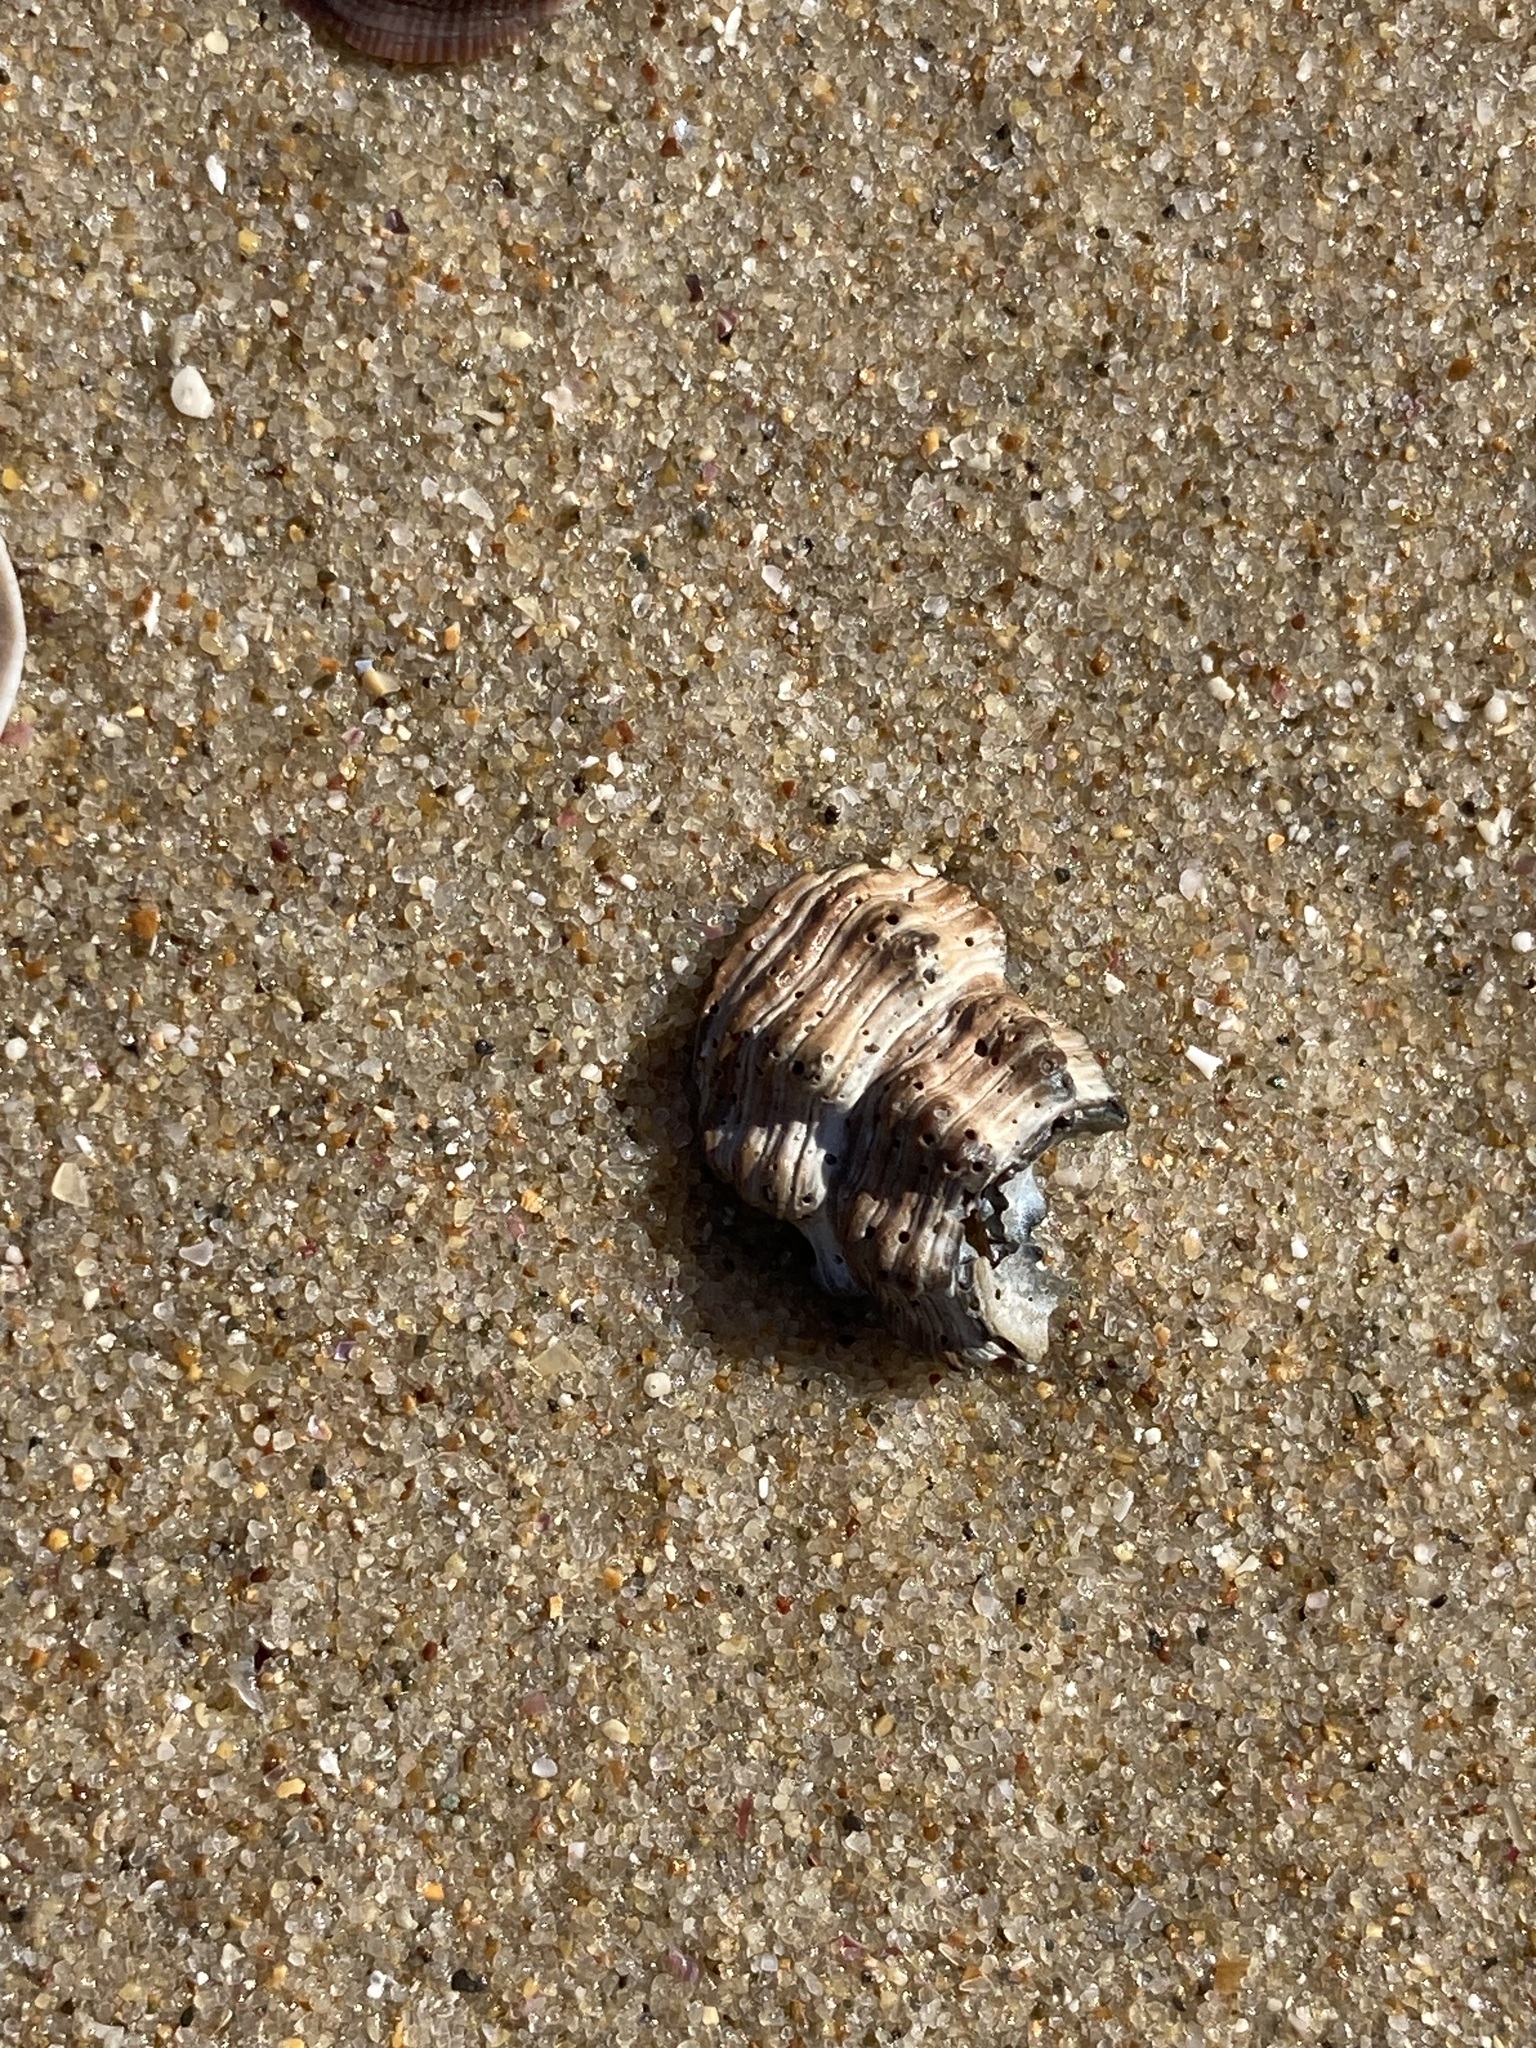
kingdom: Animalia
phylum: Mollusca
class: Gastropoda
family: Batillariidae
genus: Batillaria
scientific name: Batillaria australis
